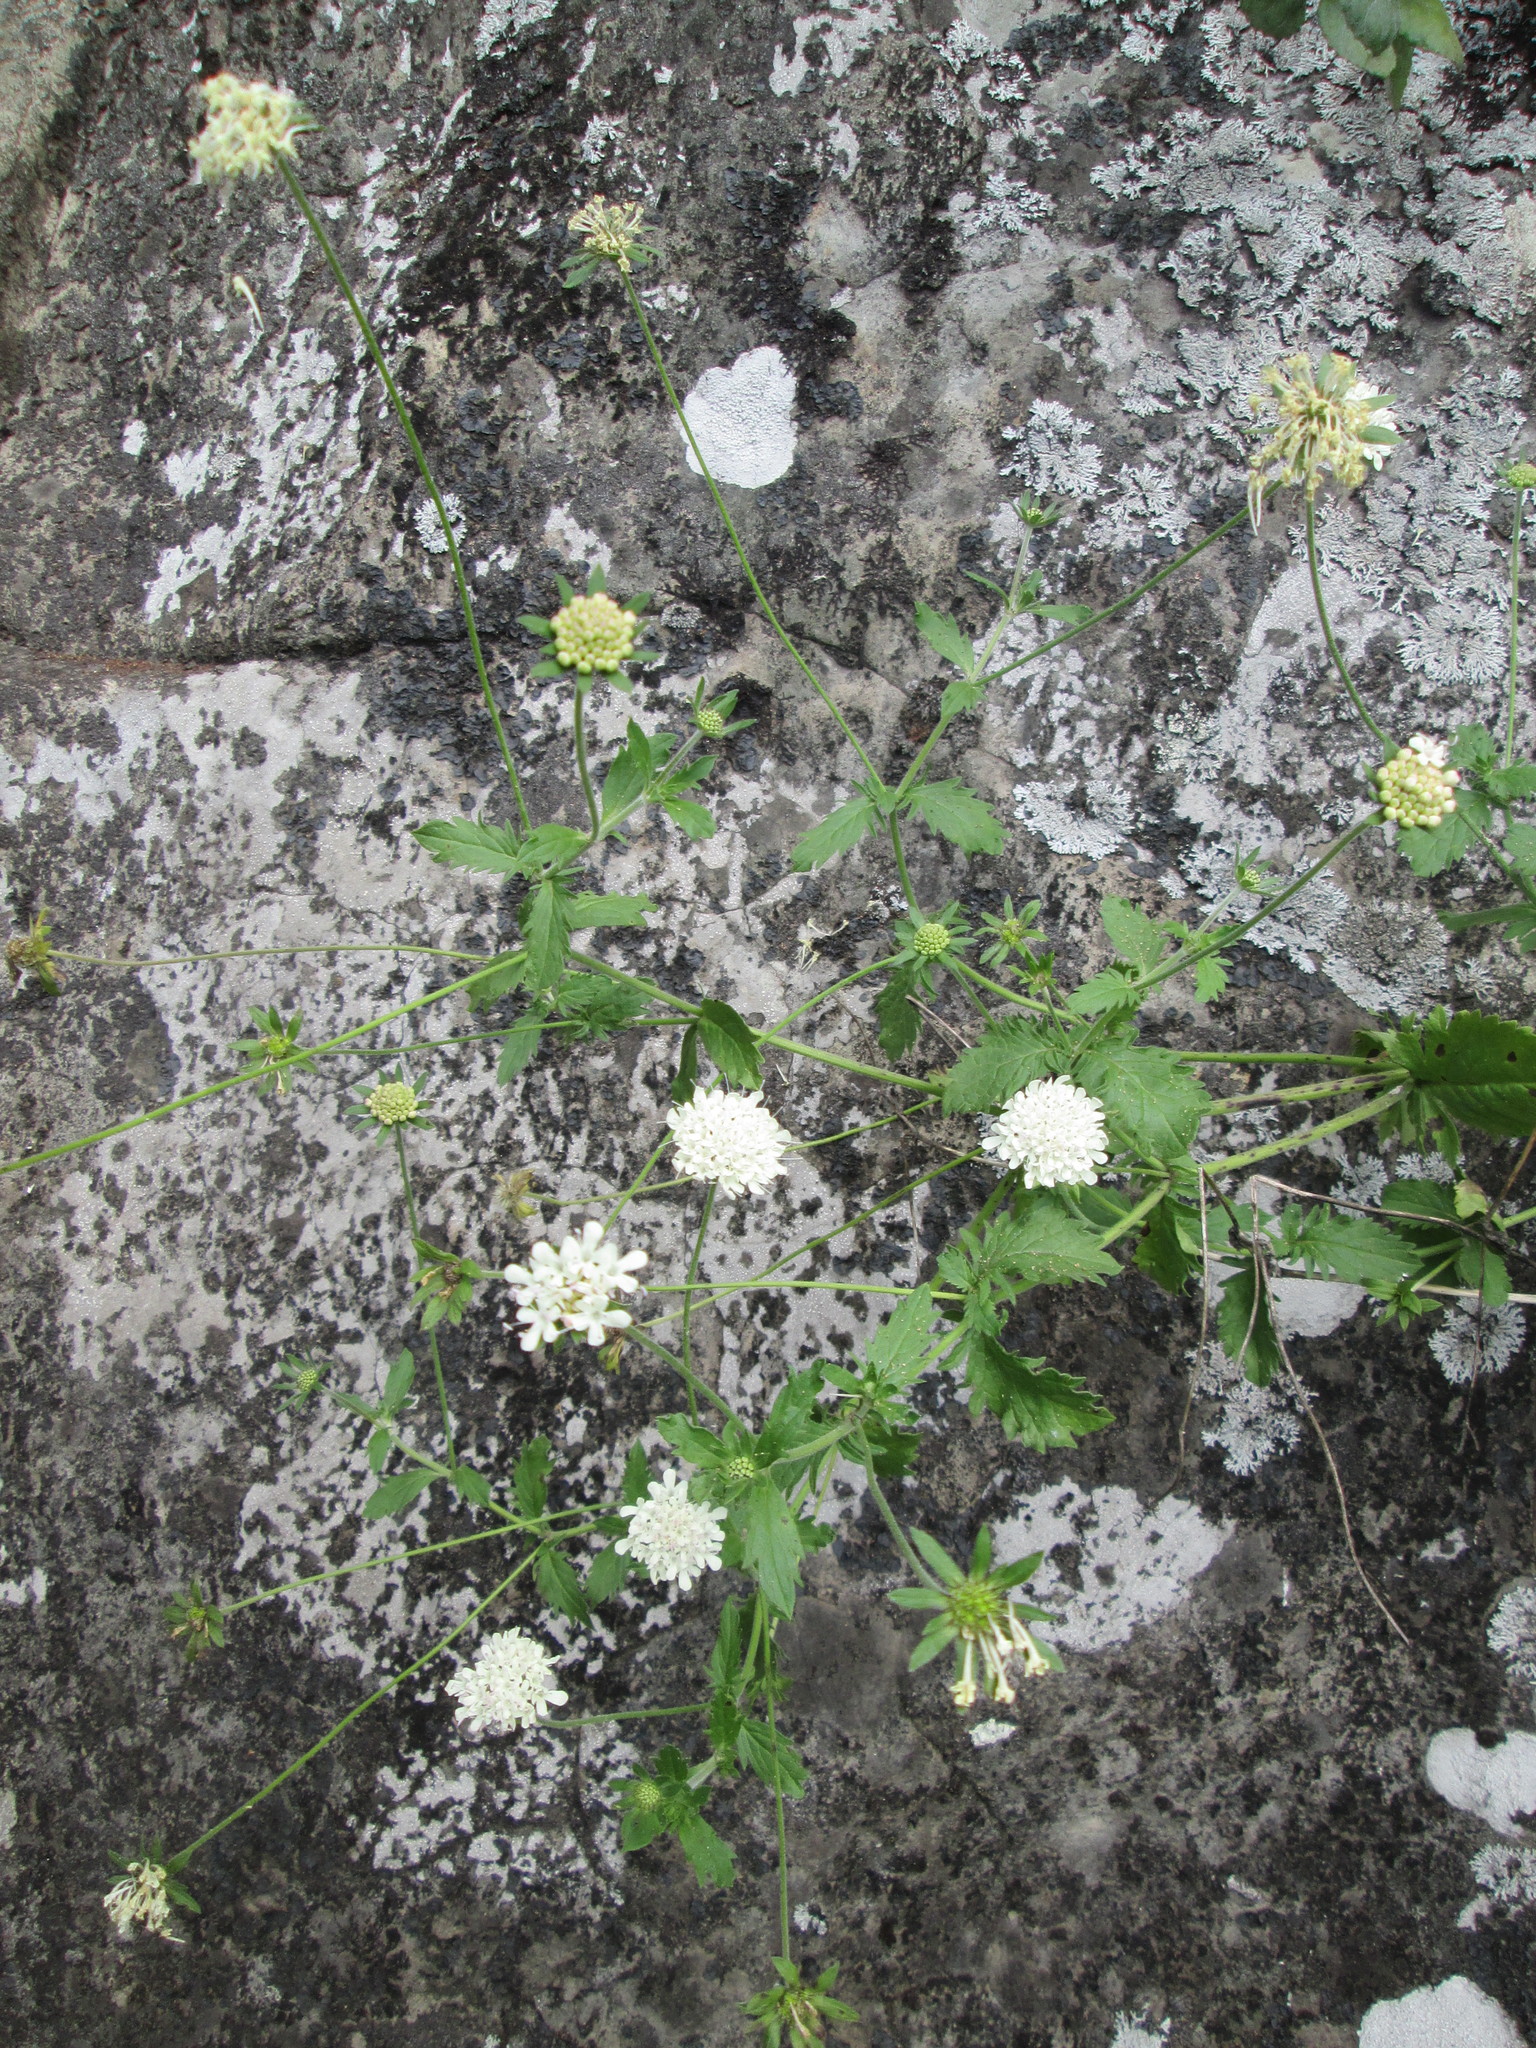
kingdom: Plantae
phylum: Tracheophyta
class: Magnoliopsida
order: Dipsacales
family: Caprifoliaceae
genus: Scabiosa
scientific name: Scabiosa drakensbergensis
